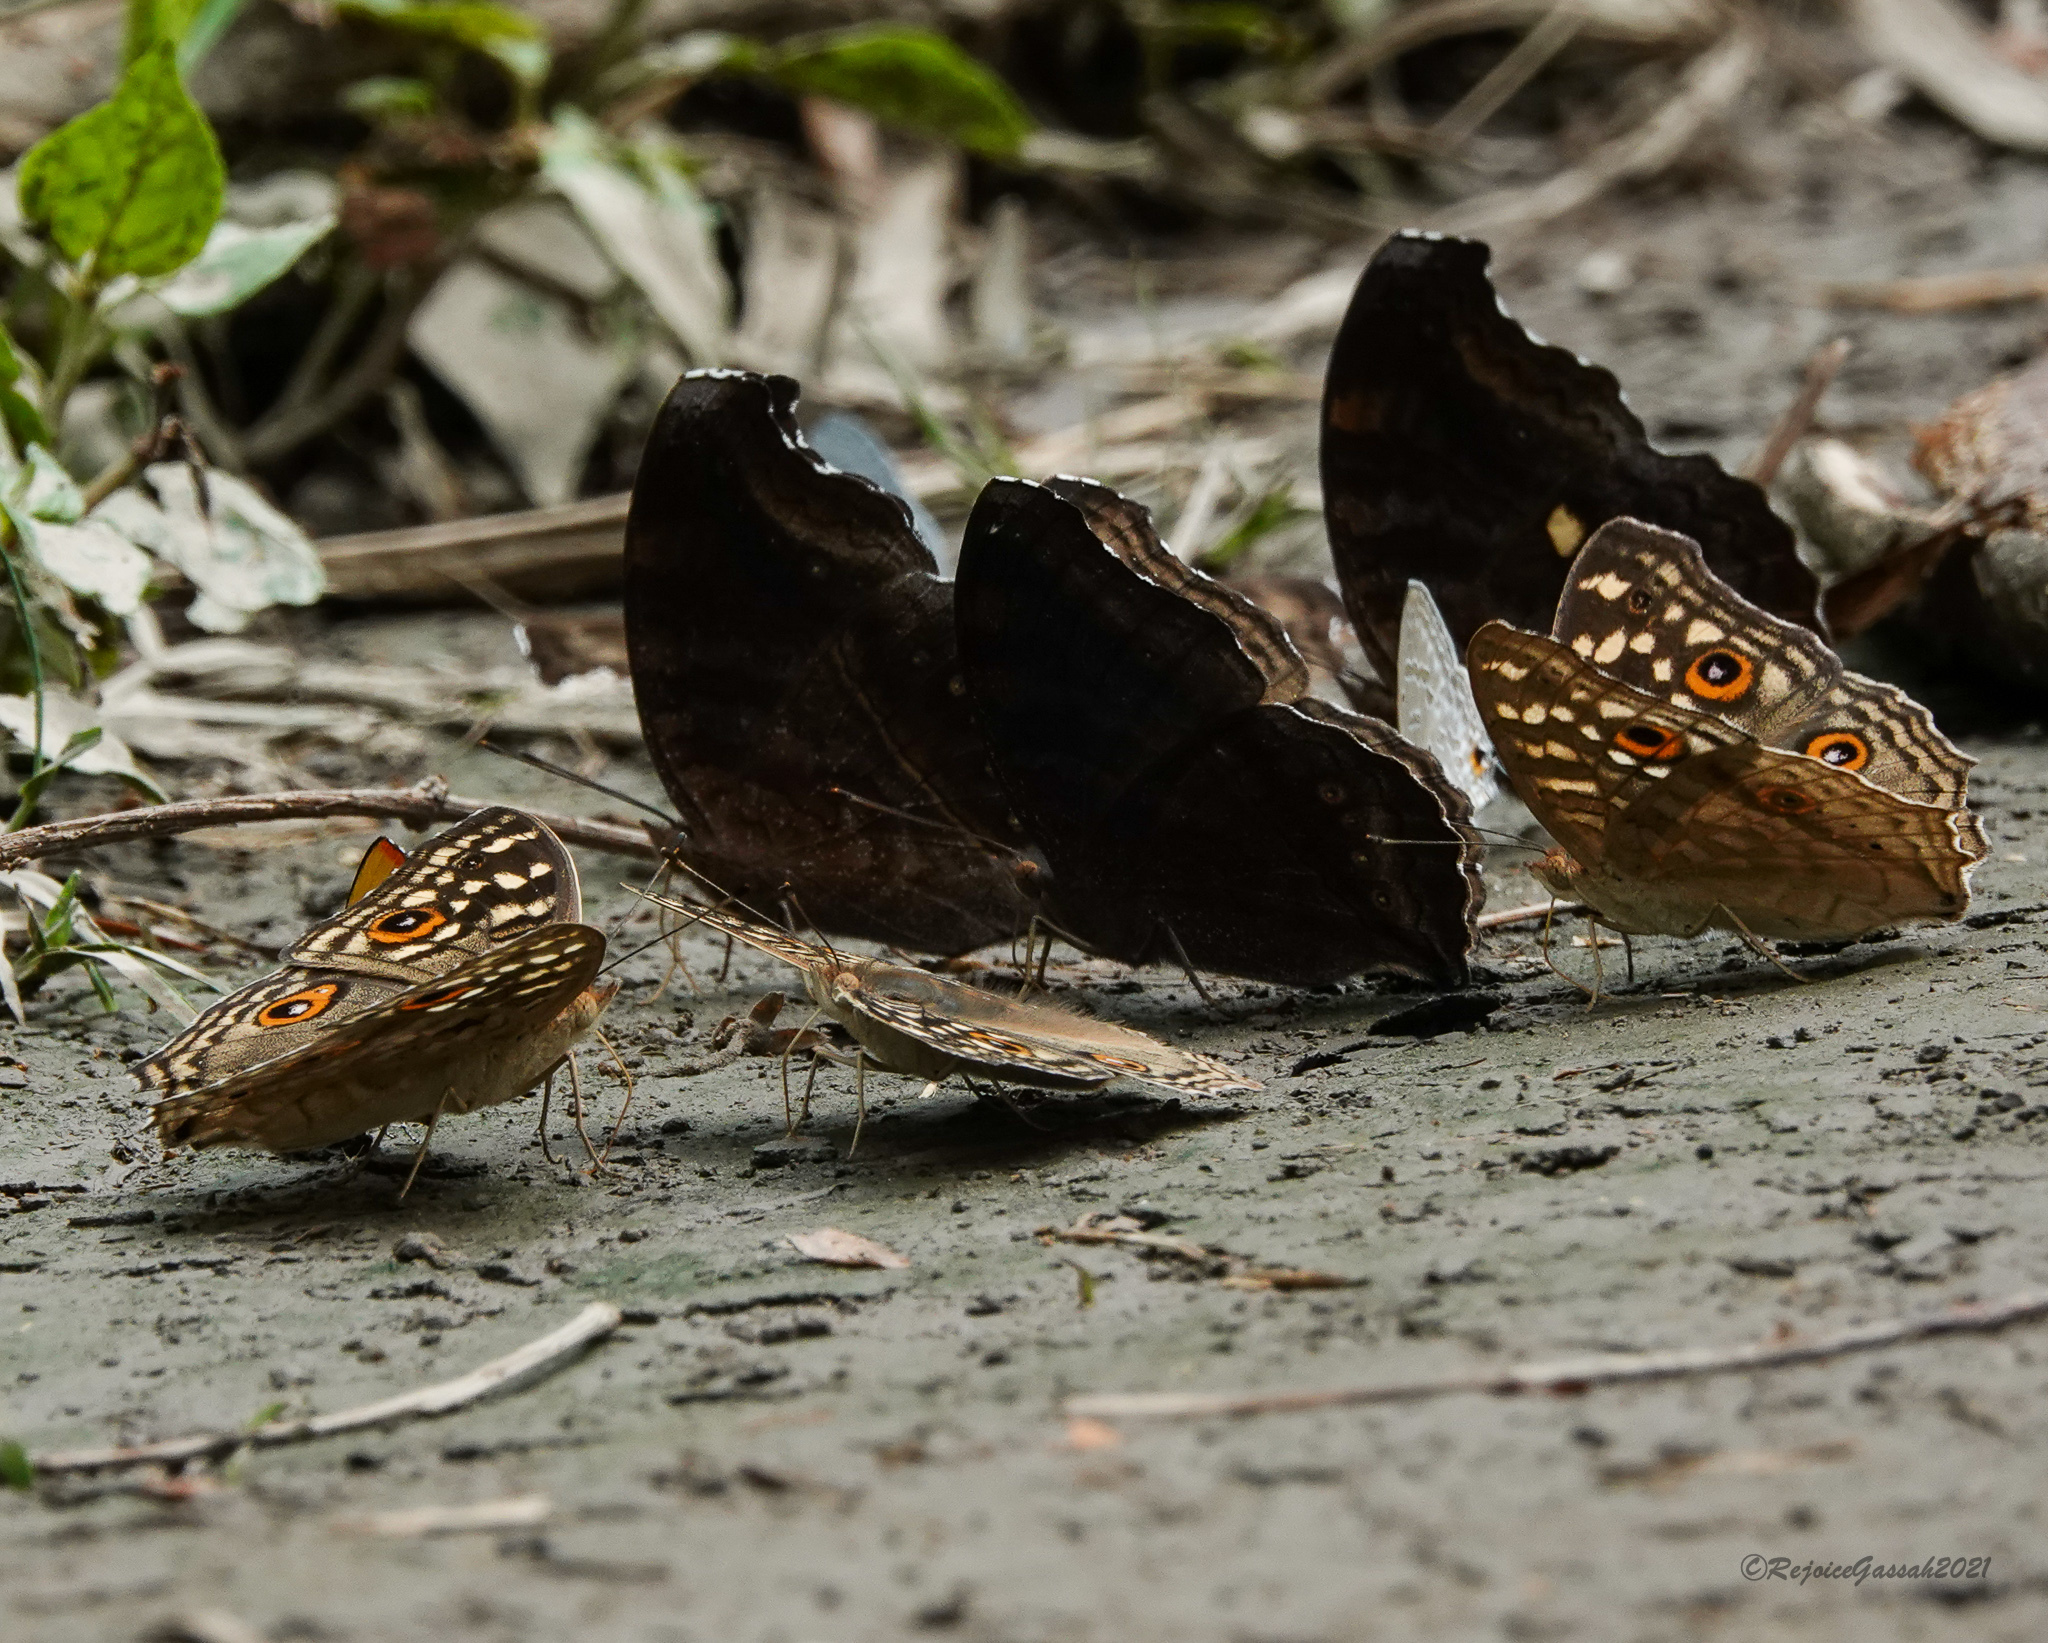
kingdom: Animalia
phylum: Arthropoda
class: Insecta
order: Lepidoptera
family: Nymphalidae
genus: Junonia
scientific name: Junonia lemonias
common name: Lemon pansy
